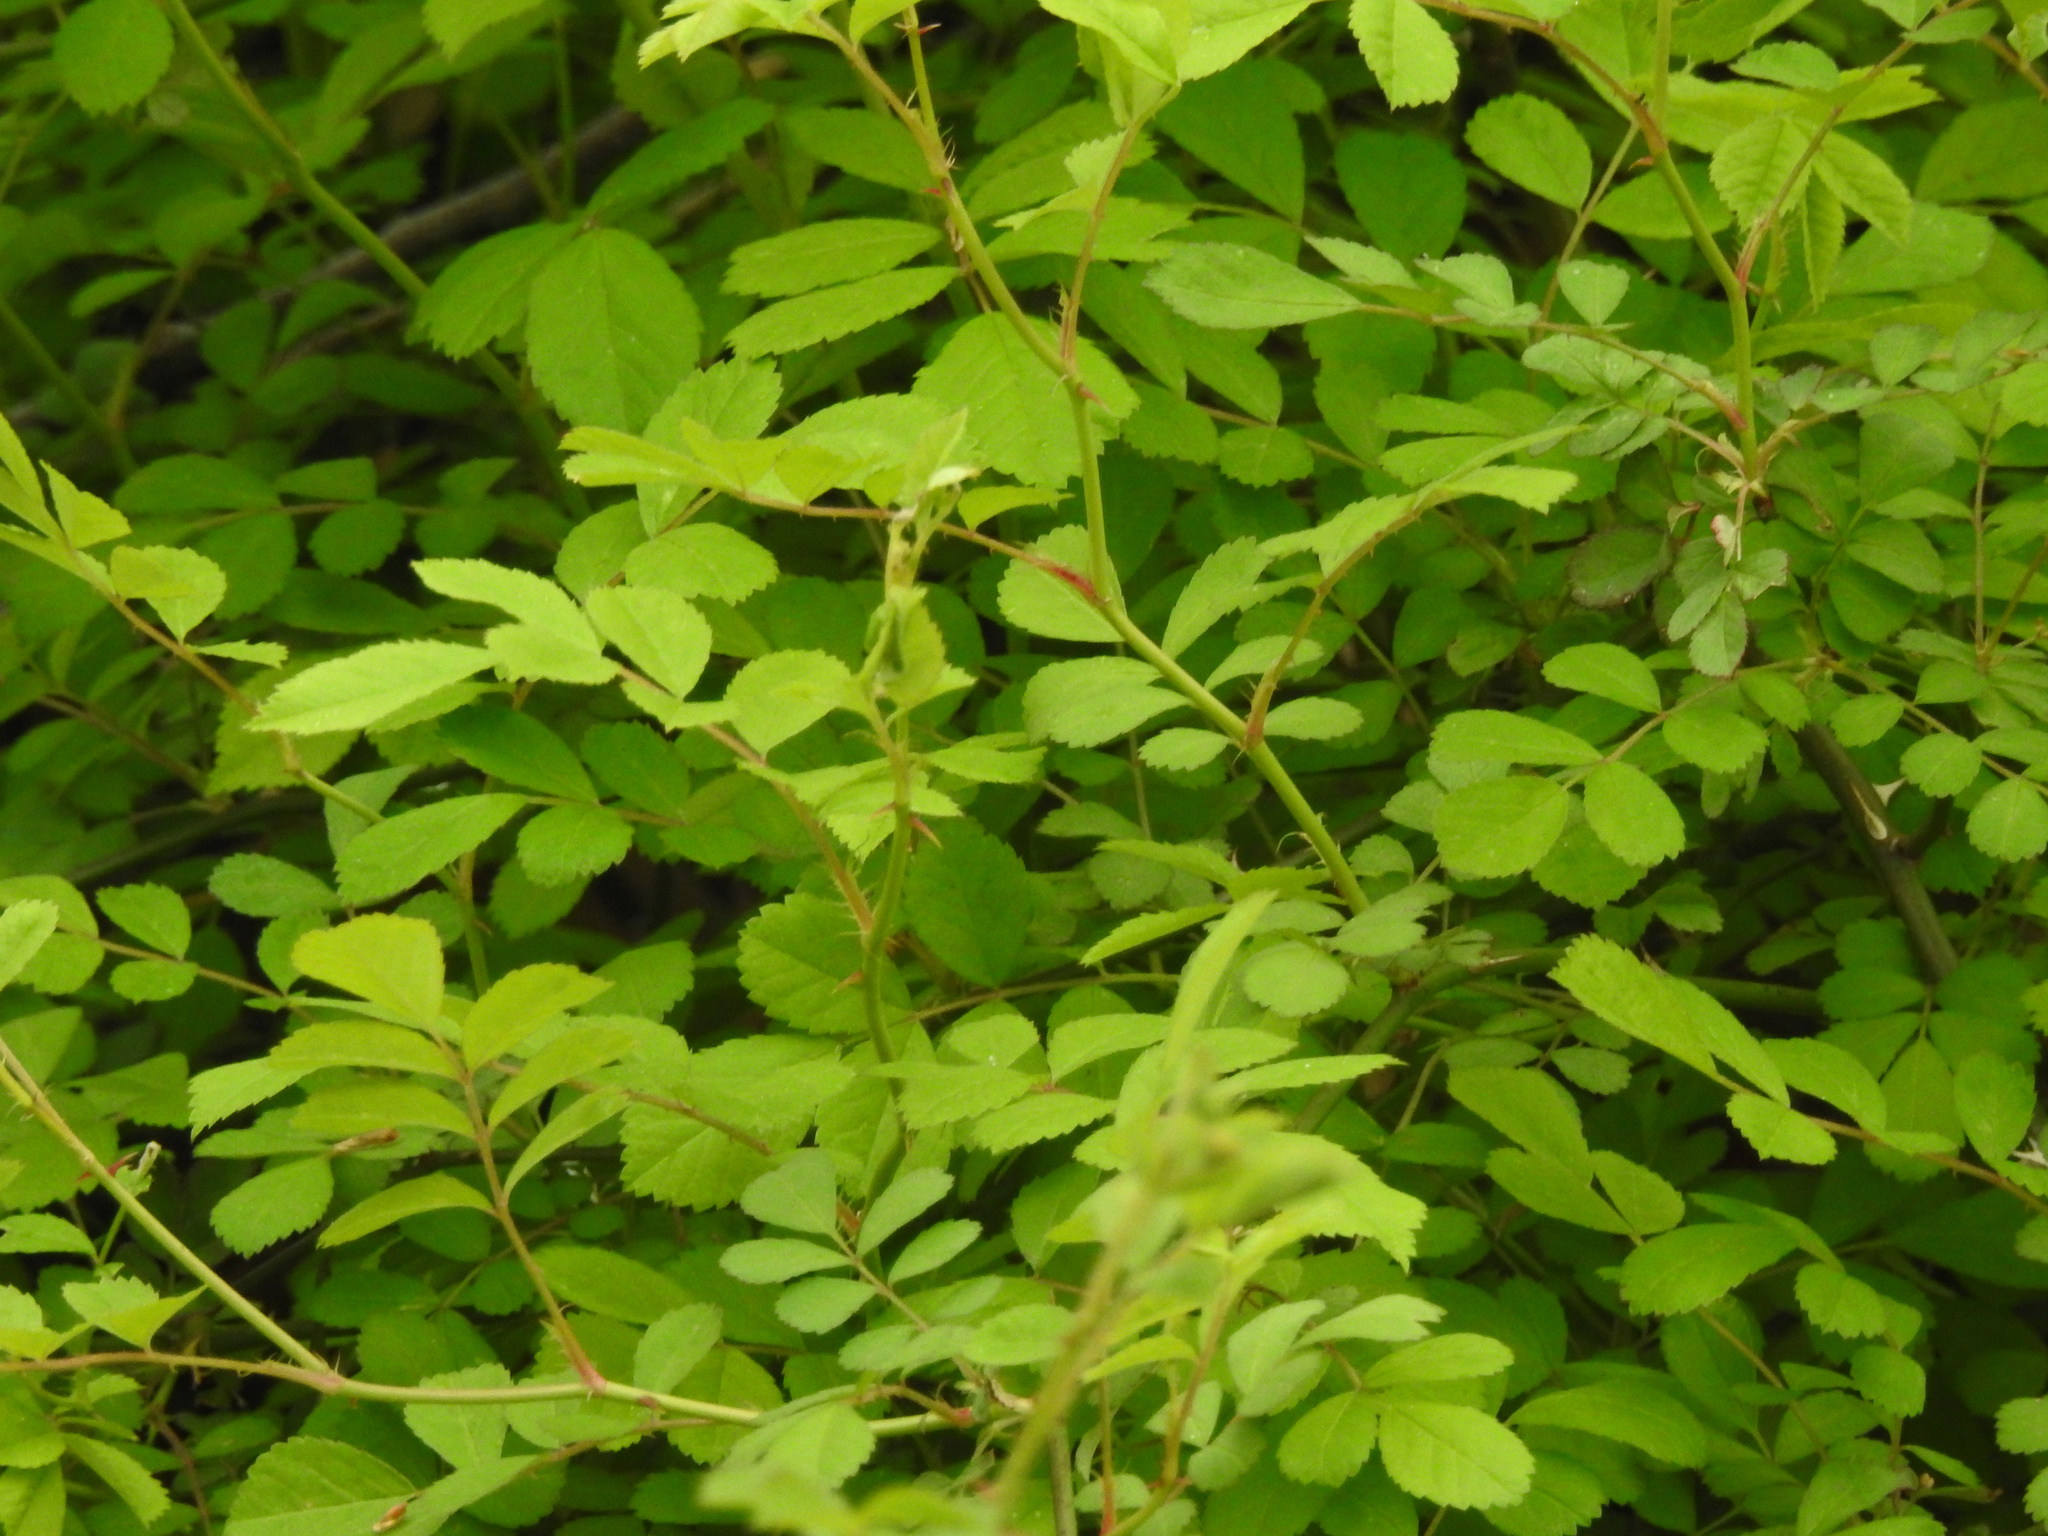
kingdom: Plantae
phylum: Tracheophyta
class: Magnoliopsida
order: Rosales
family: Rosaceae
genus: Rosa
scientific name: Rosa multiflora
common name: Multiflora rose
